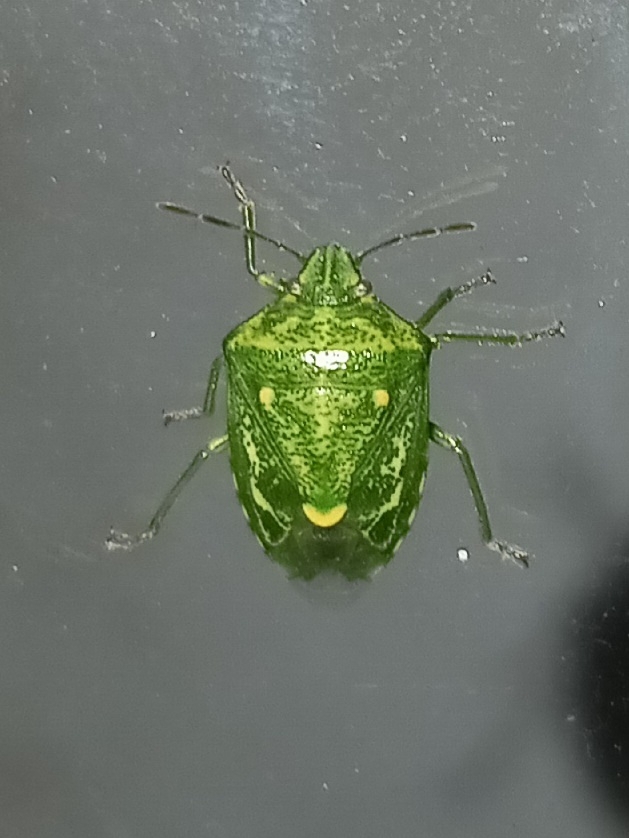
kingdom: Animalia
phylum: Arthropoda
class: Insecta
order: Hemiptera
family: Pentatomidae
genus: Banasa
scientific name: Banasa euchlora
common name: Cedar berry bug
